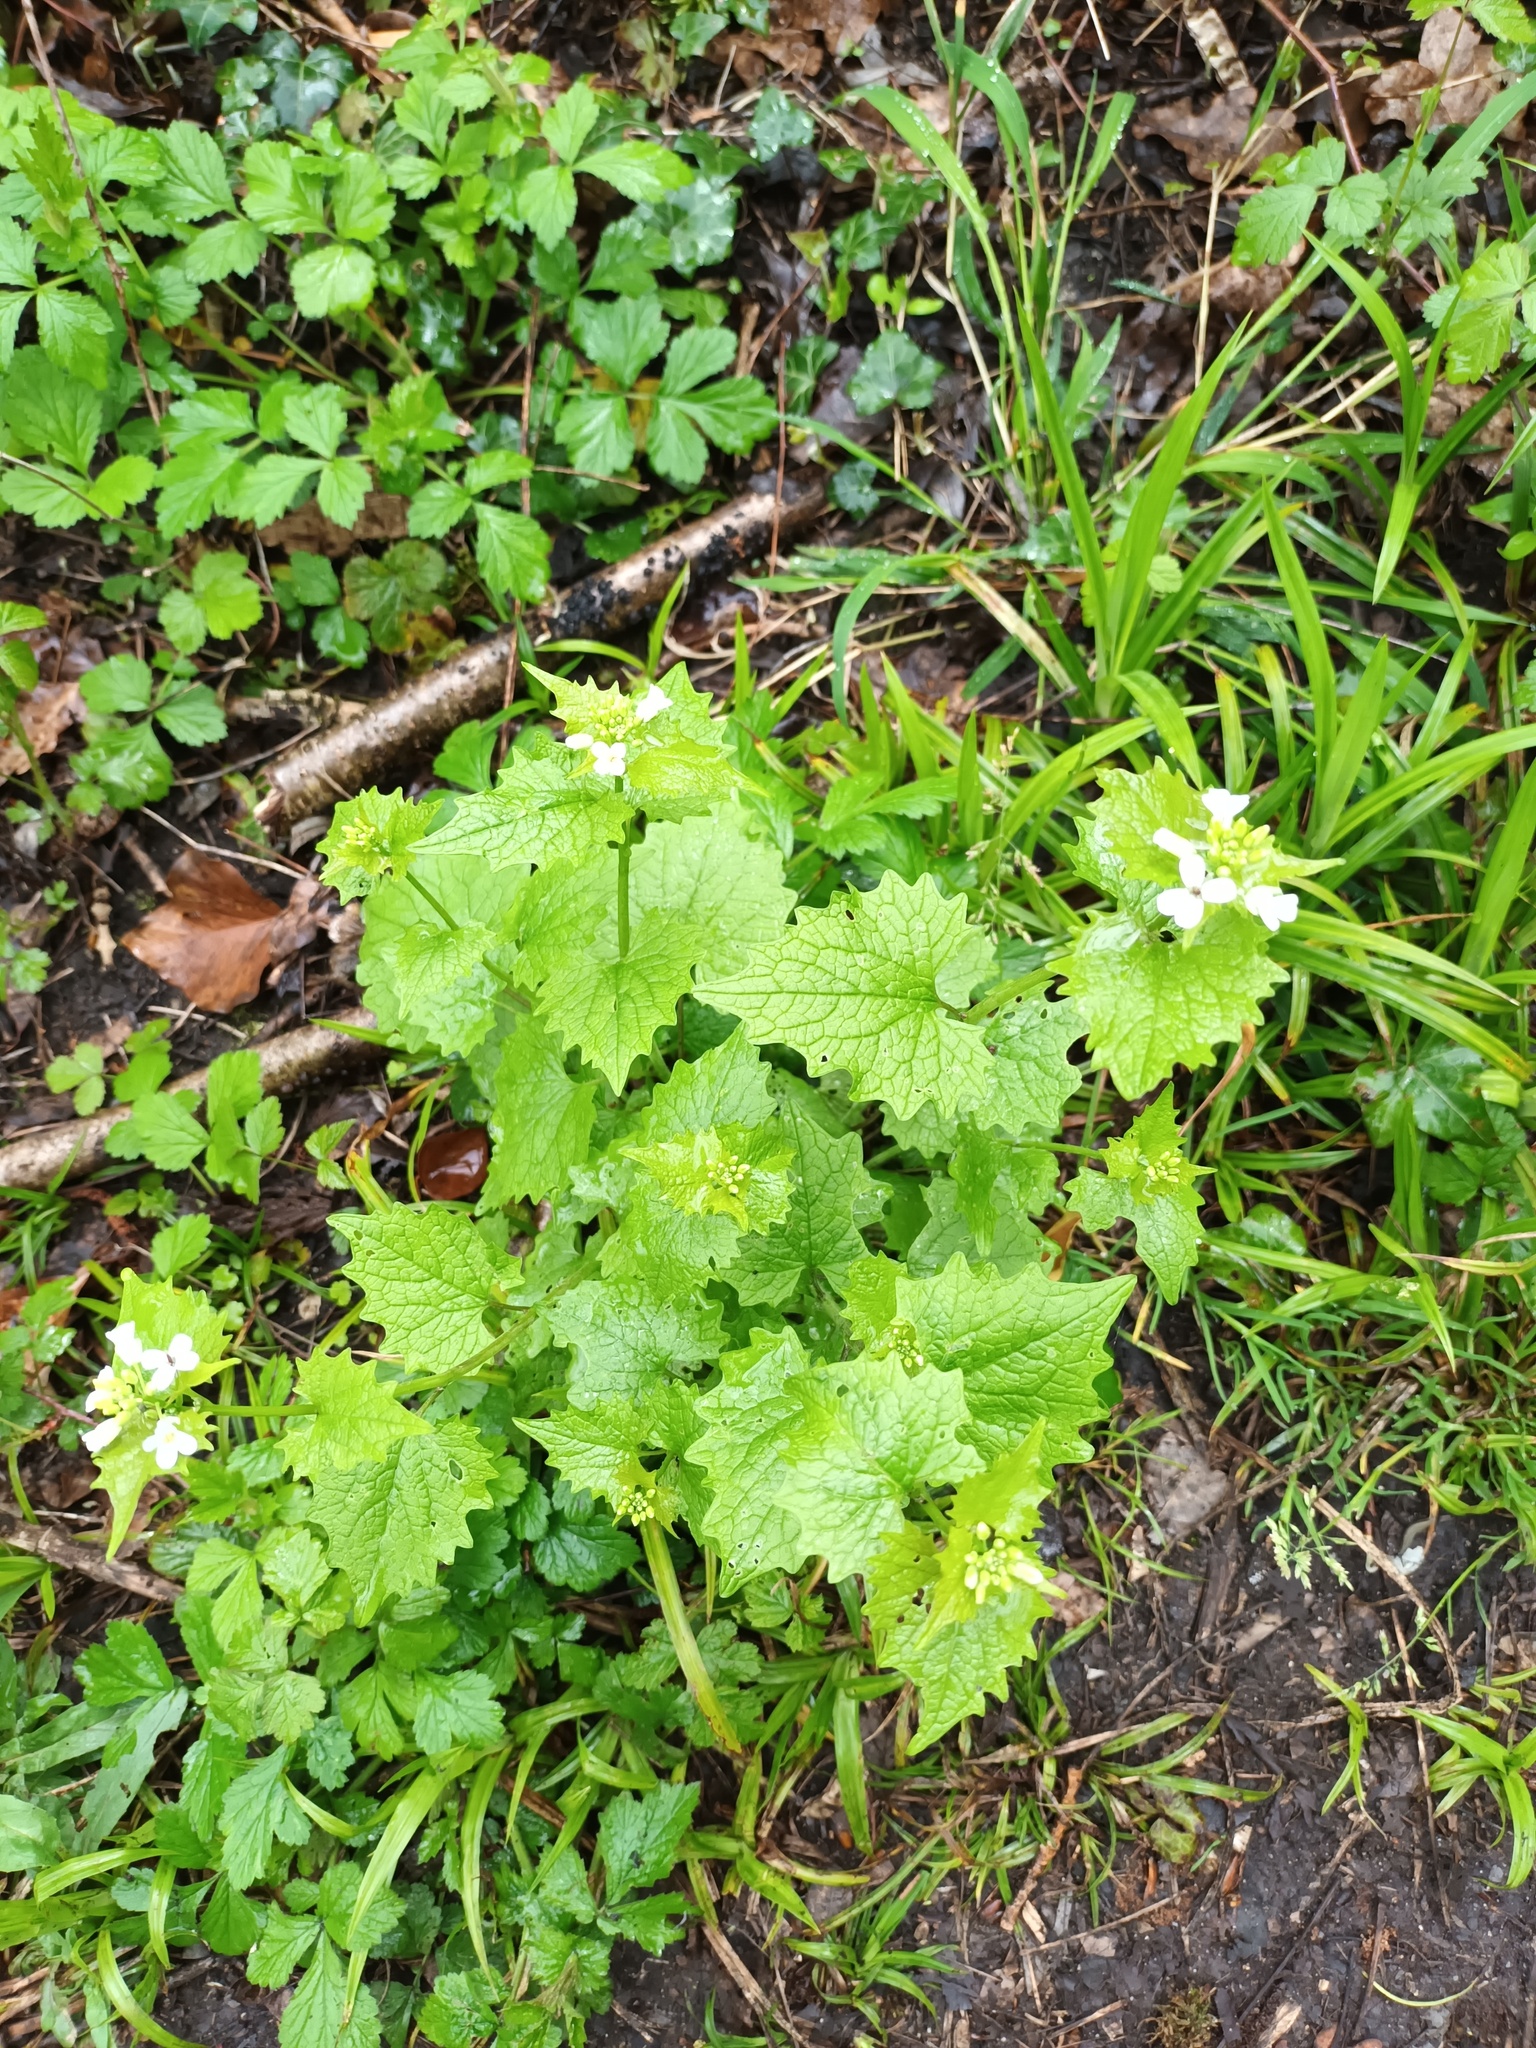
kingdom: Plantae
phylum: Tracheophyta
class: Magnoliopsida
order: Brassicales
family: Brassicaceae
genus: Alliaria
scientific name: Alliaria petiolata
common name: Garlic mustard
